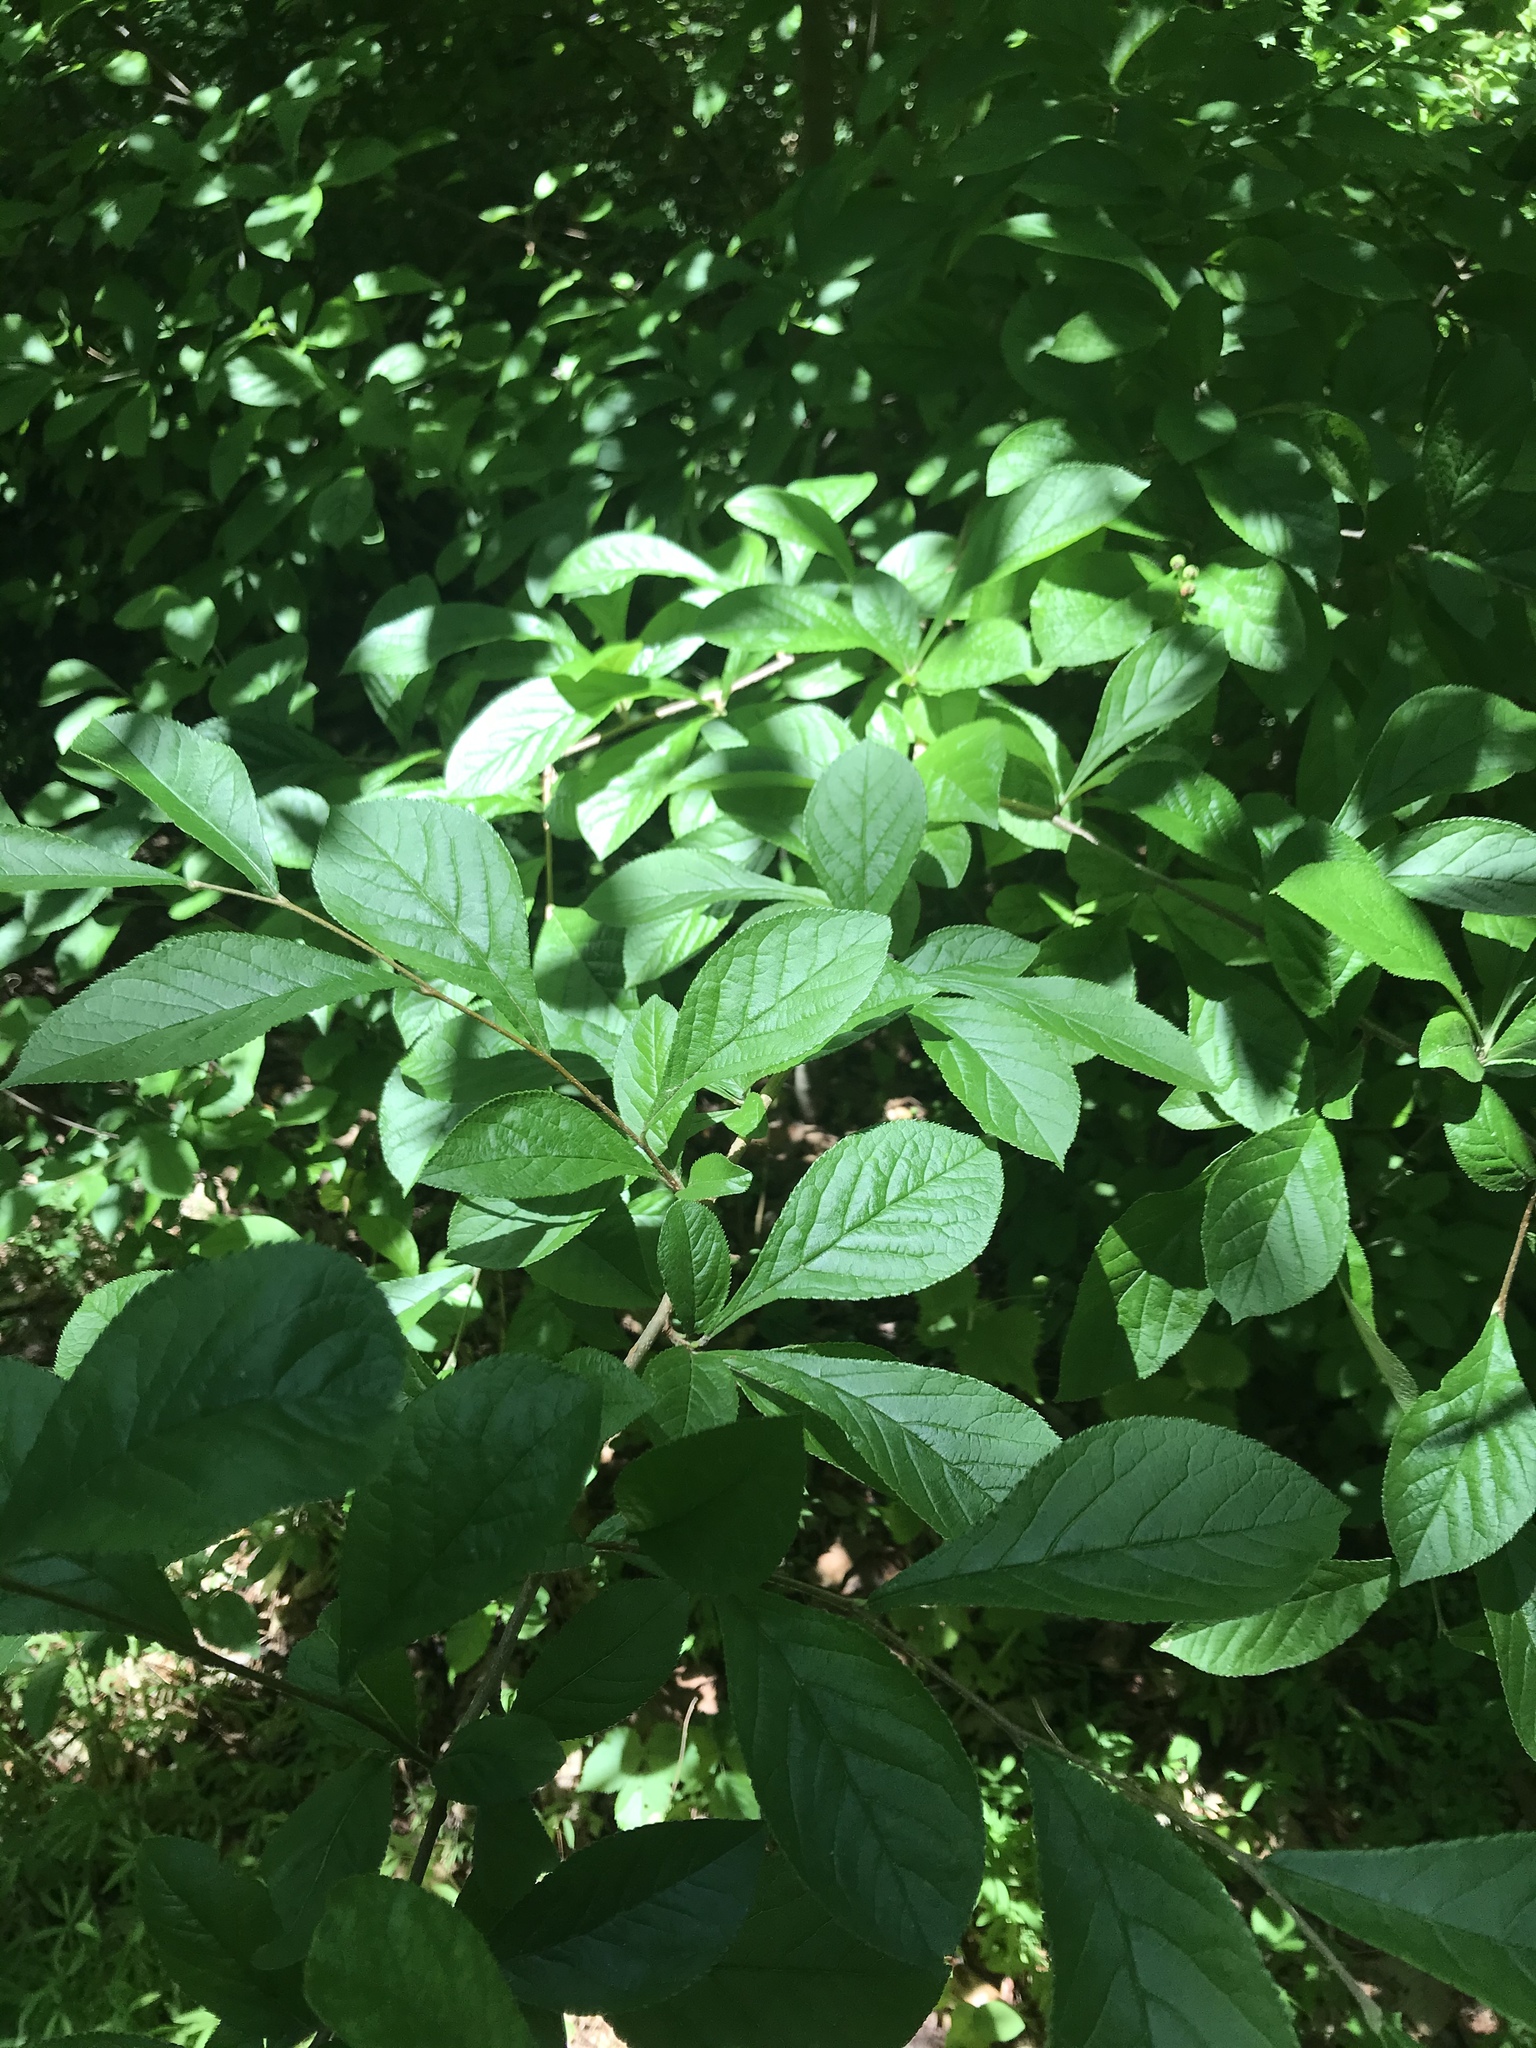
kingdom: Plantae
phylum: Tracheophyta
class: Magnoliopsida
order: Rosales
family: Rosaceae
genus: Pourthiaea
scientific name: Pourthiaea villosa
